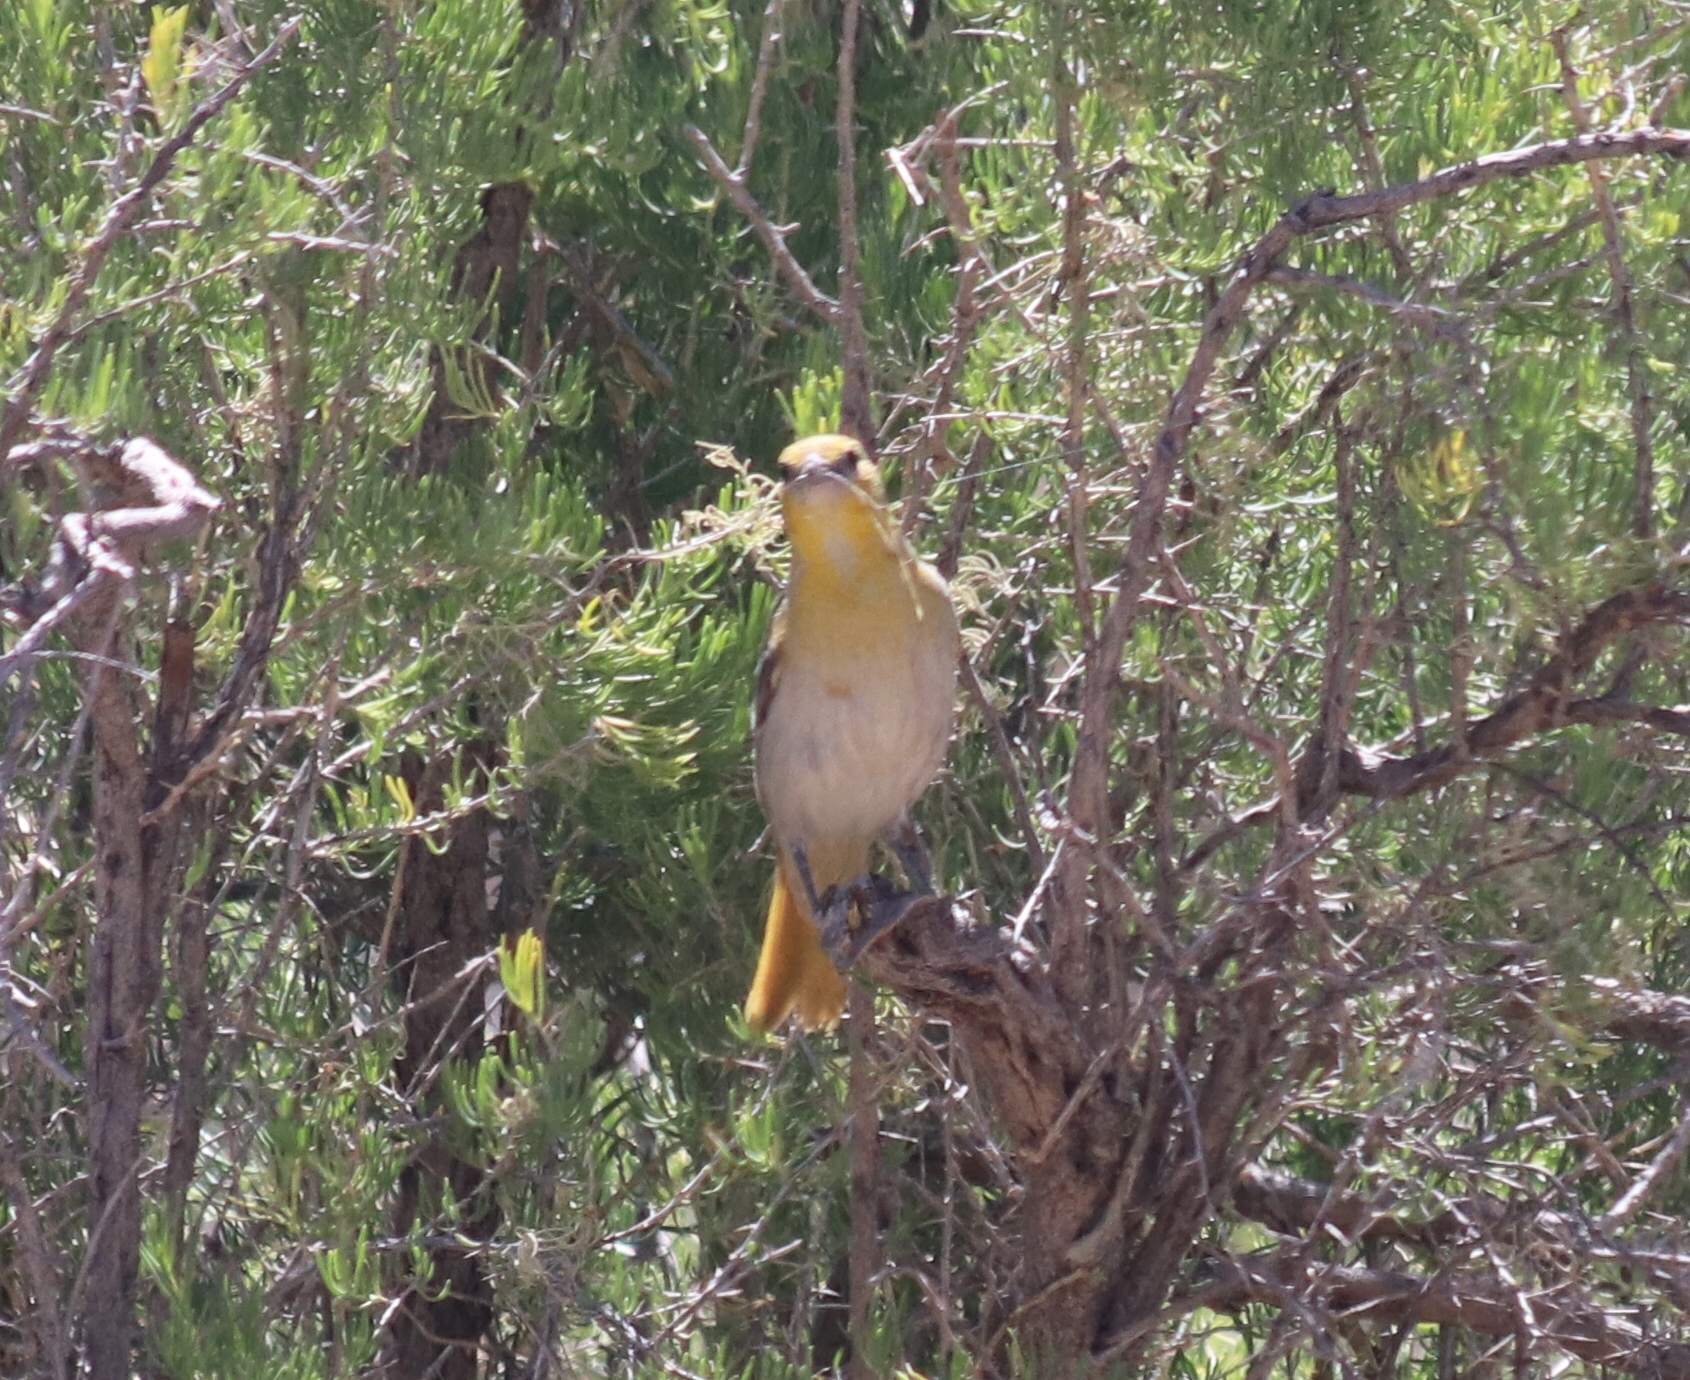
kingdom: Animalia
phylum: Chordata
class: Aves
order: Passeriformes
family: Icteridae
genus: Icterus
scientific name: Icterus bullockii
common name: Bullock's oriole
